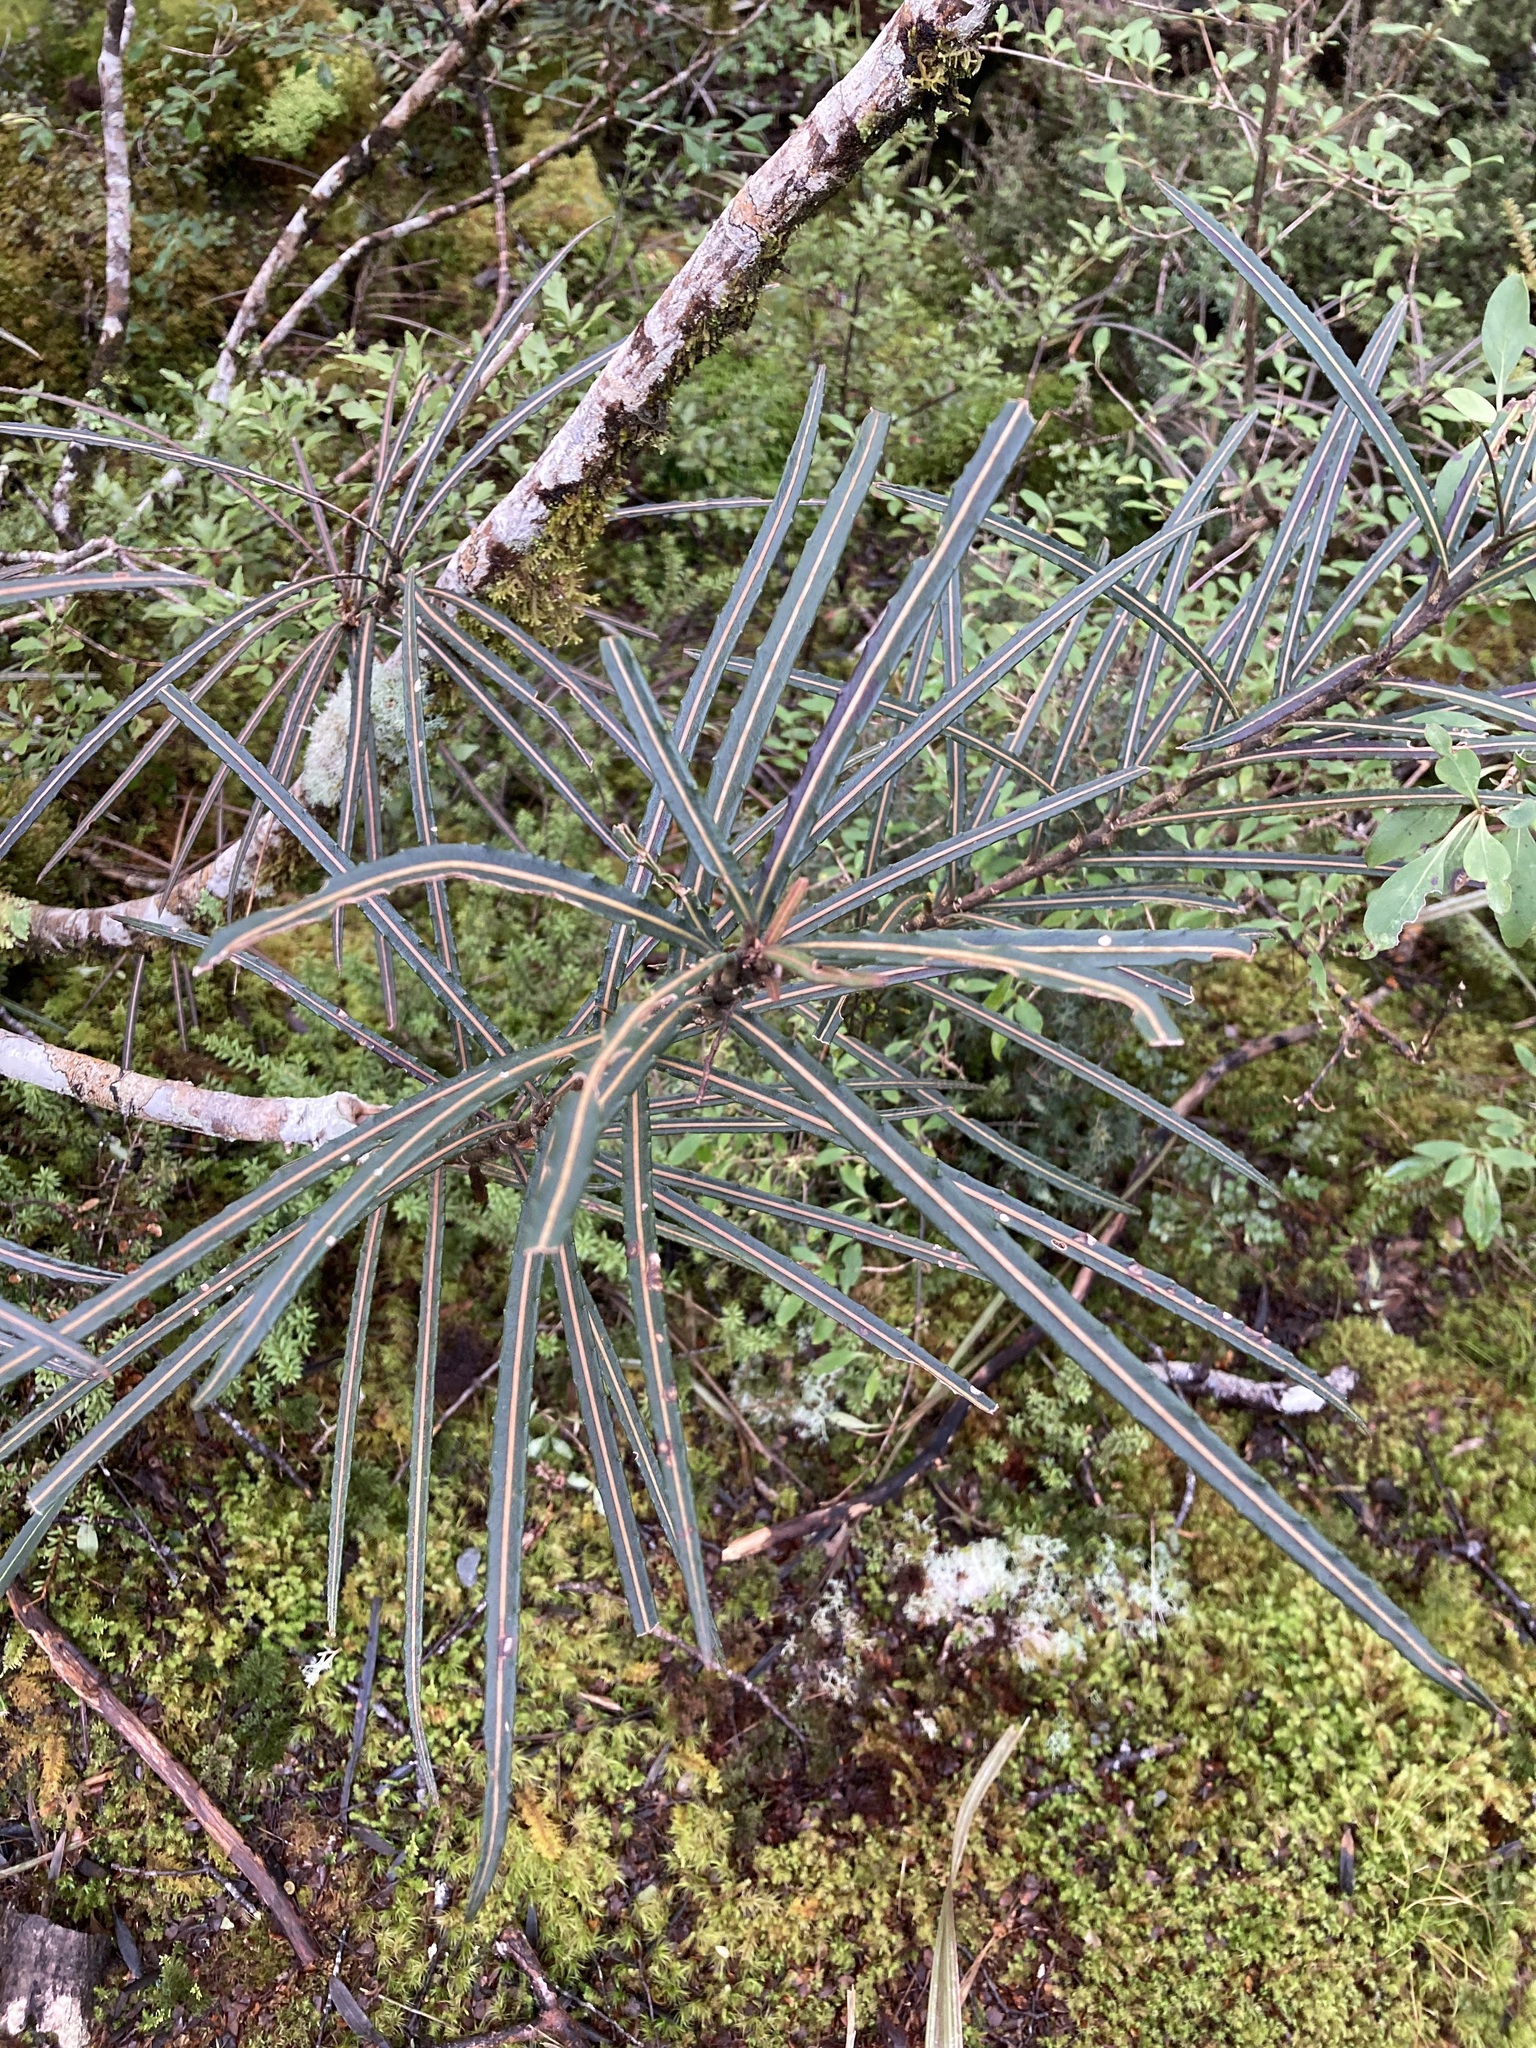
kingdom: Plantae
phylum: Tracheophyta
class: Magnoliopsida
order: Apiales
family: Araliaceae
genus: Pseudopanax
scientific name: Pseudopanax linearis
